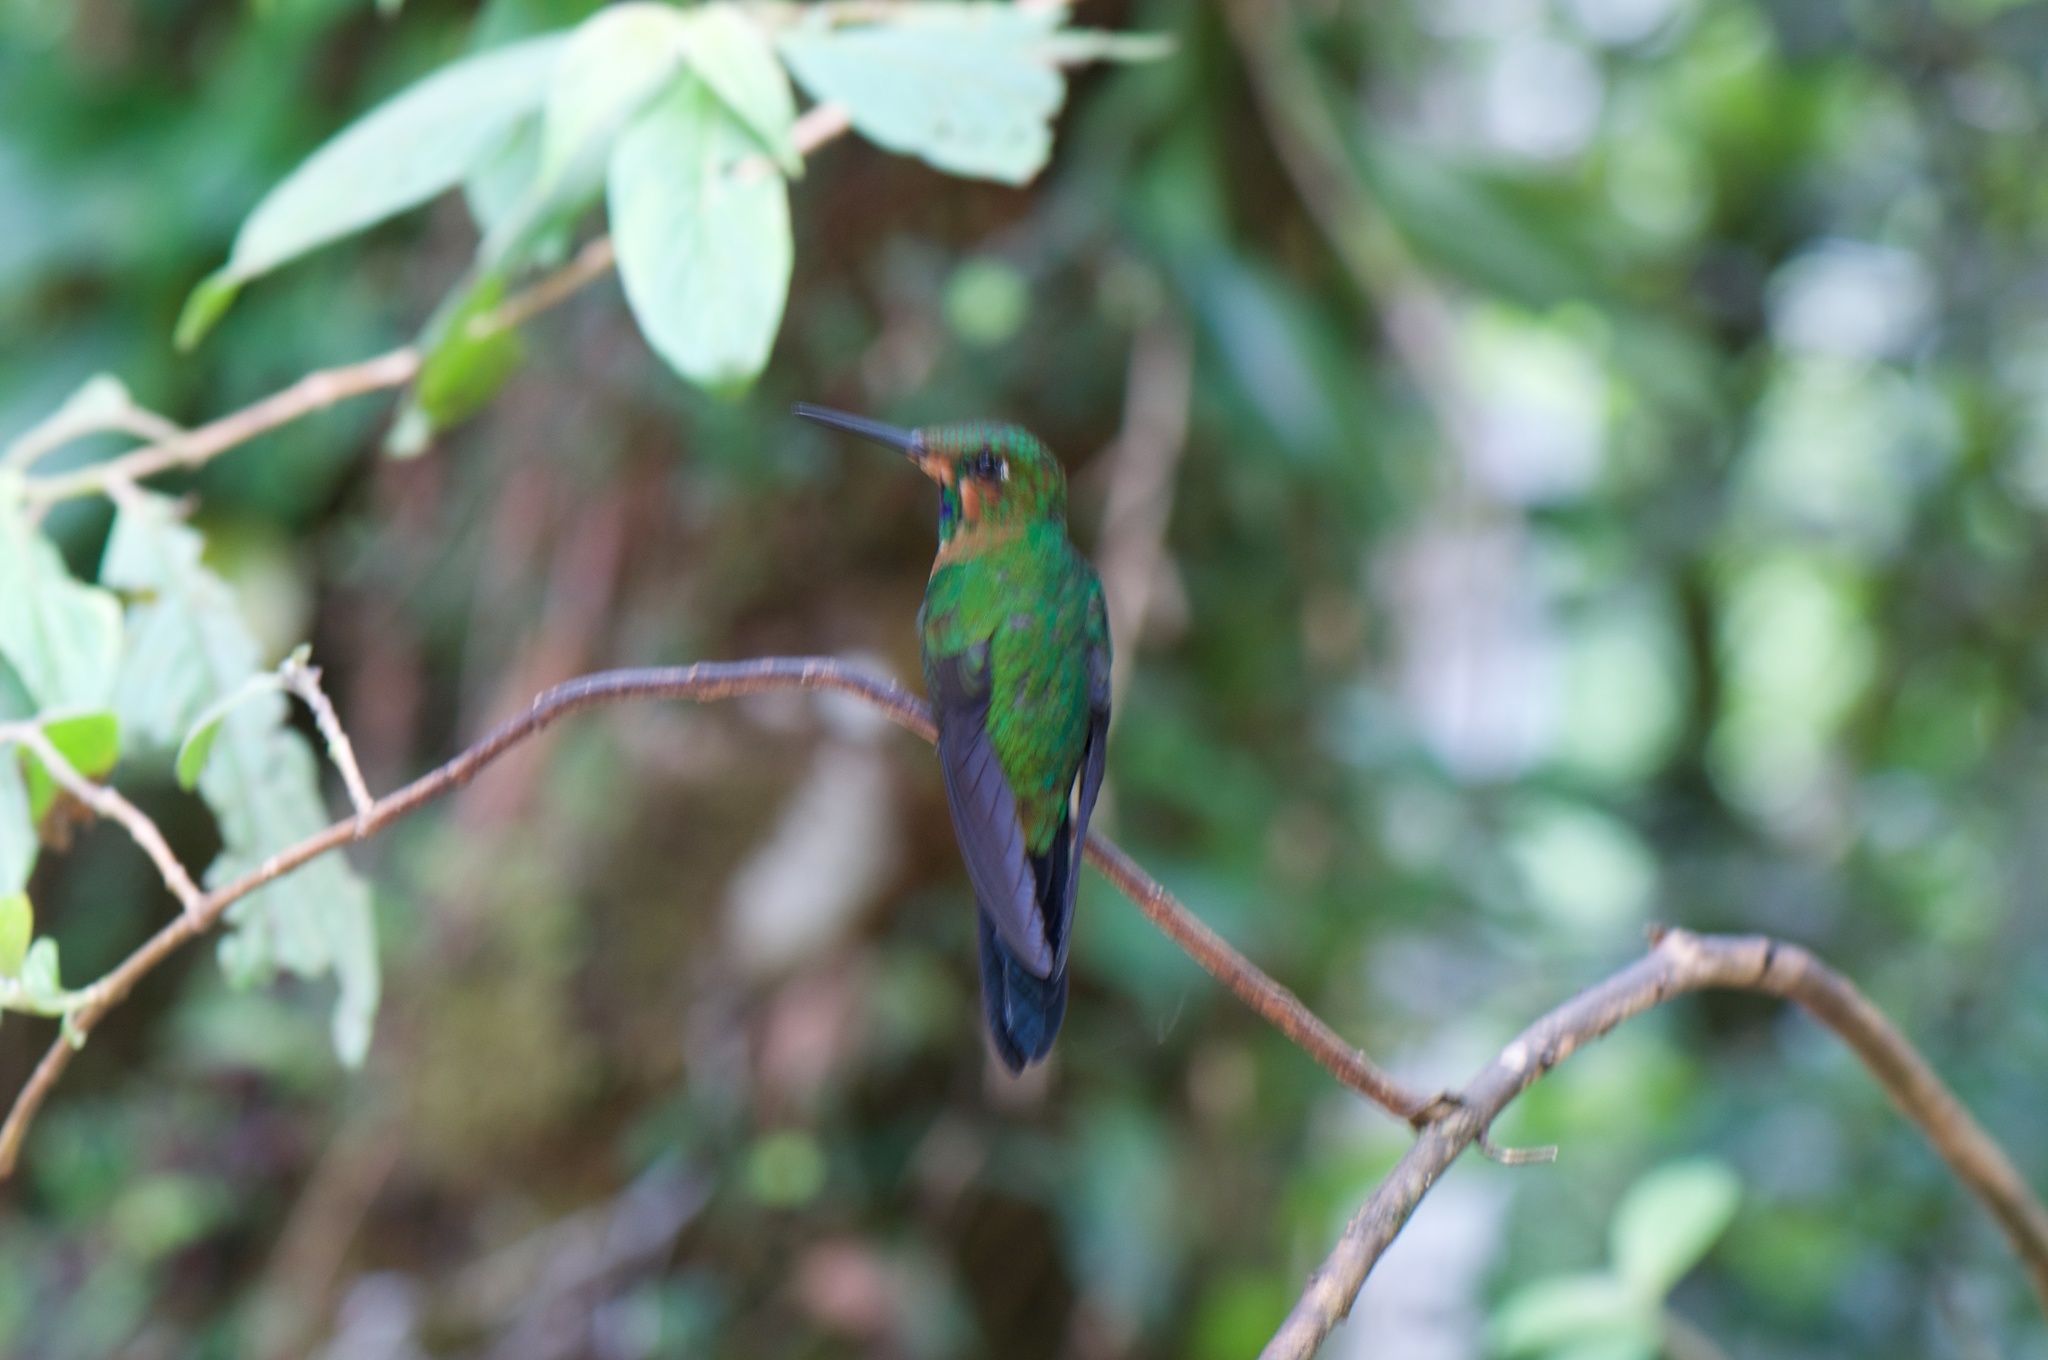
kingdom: Animalia
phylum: Chordata
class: Aves
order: Apodiformes
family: Trochilidae
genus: Heliodoxa
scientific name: Heliodoxa jacula
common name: Green-crowned brilliant
